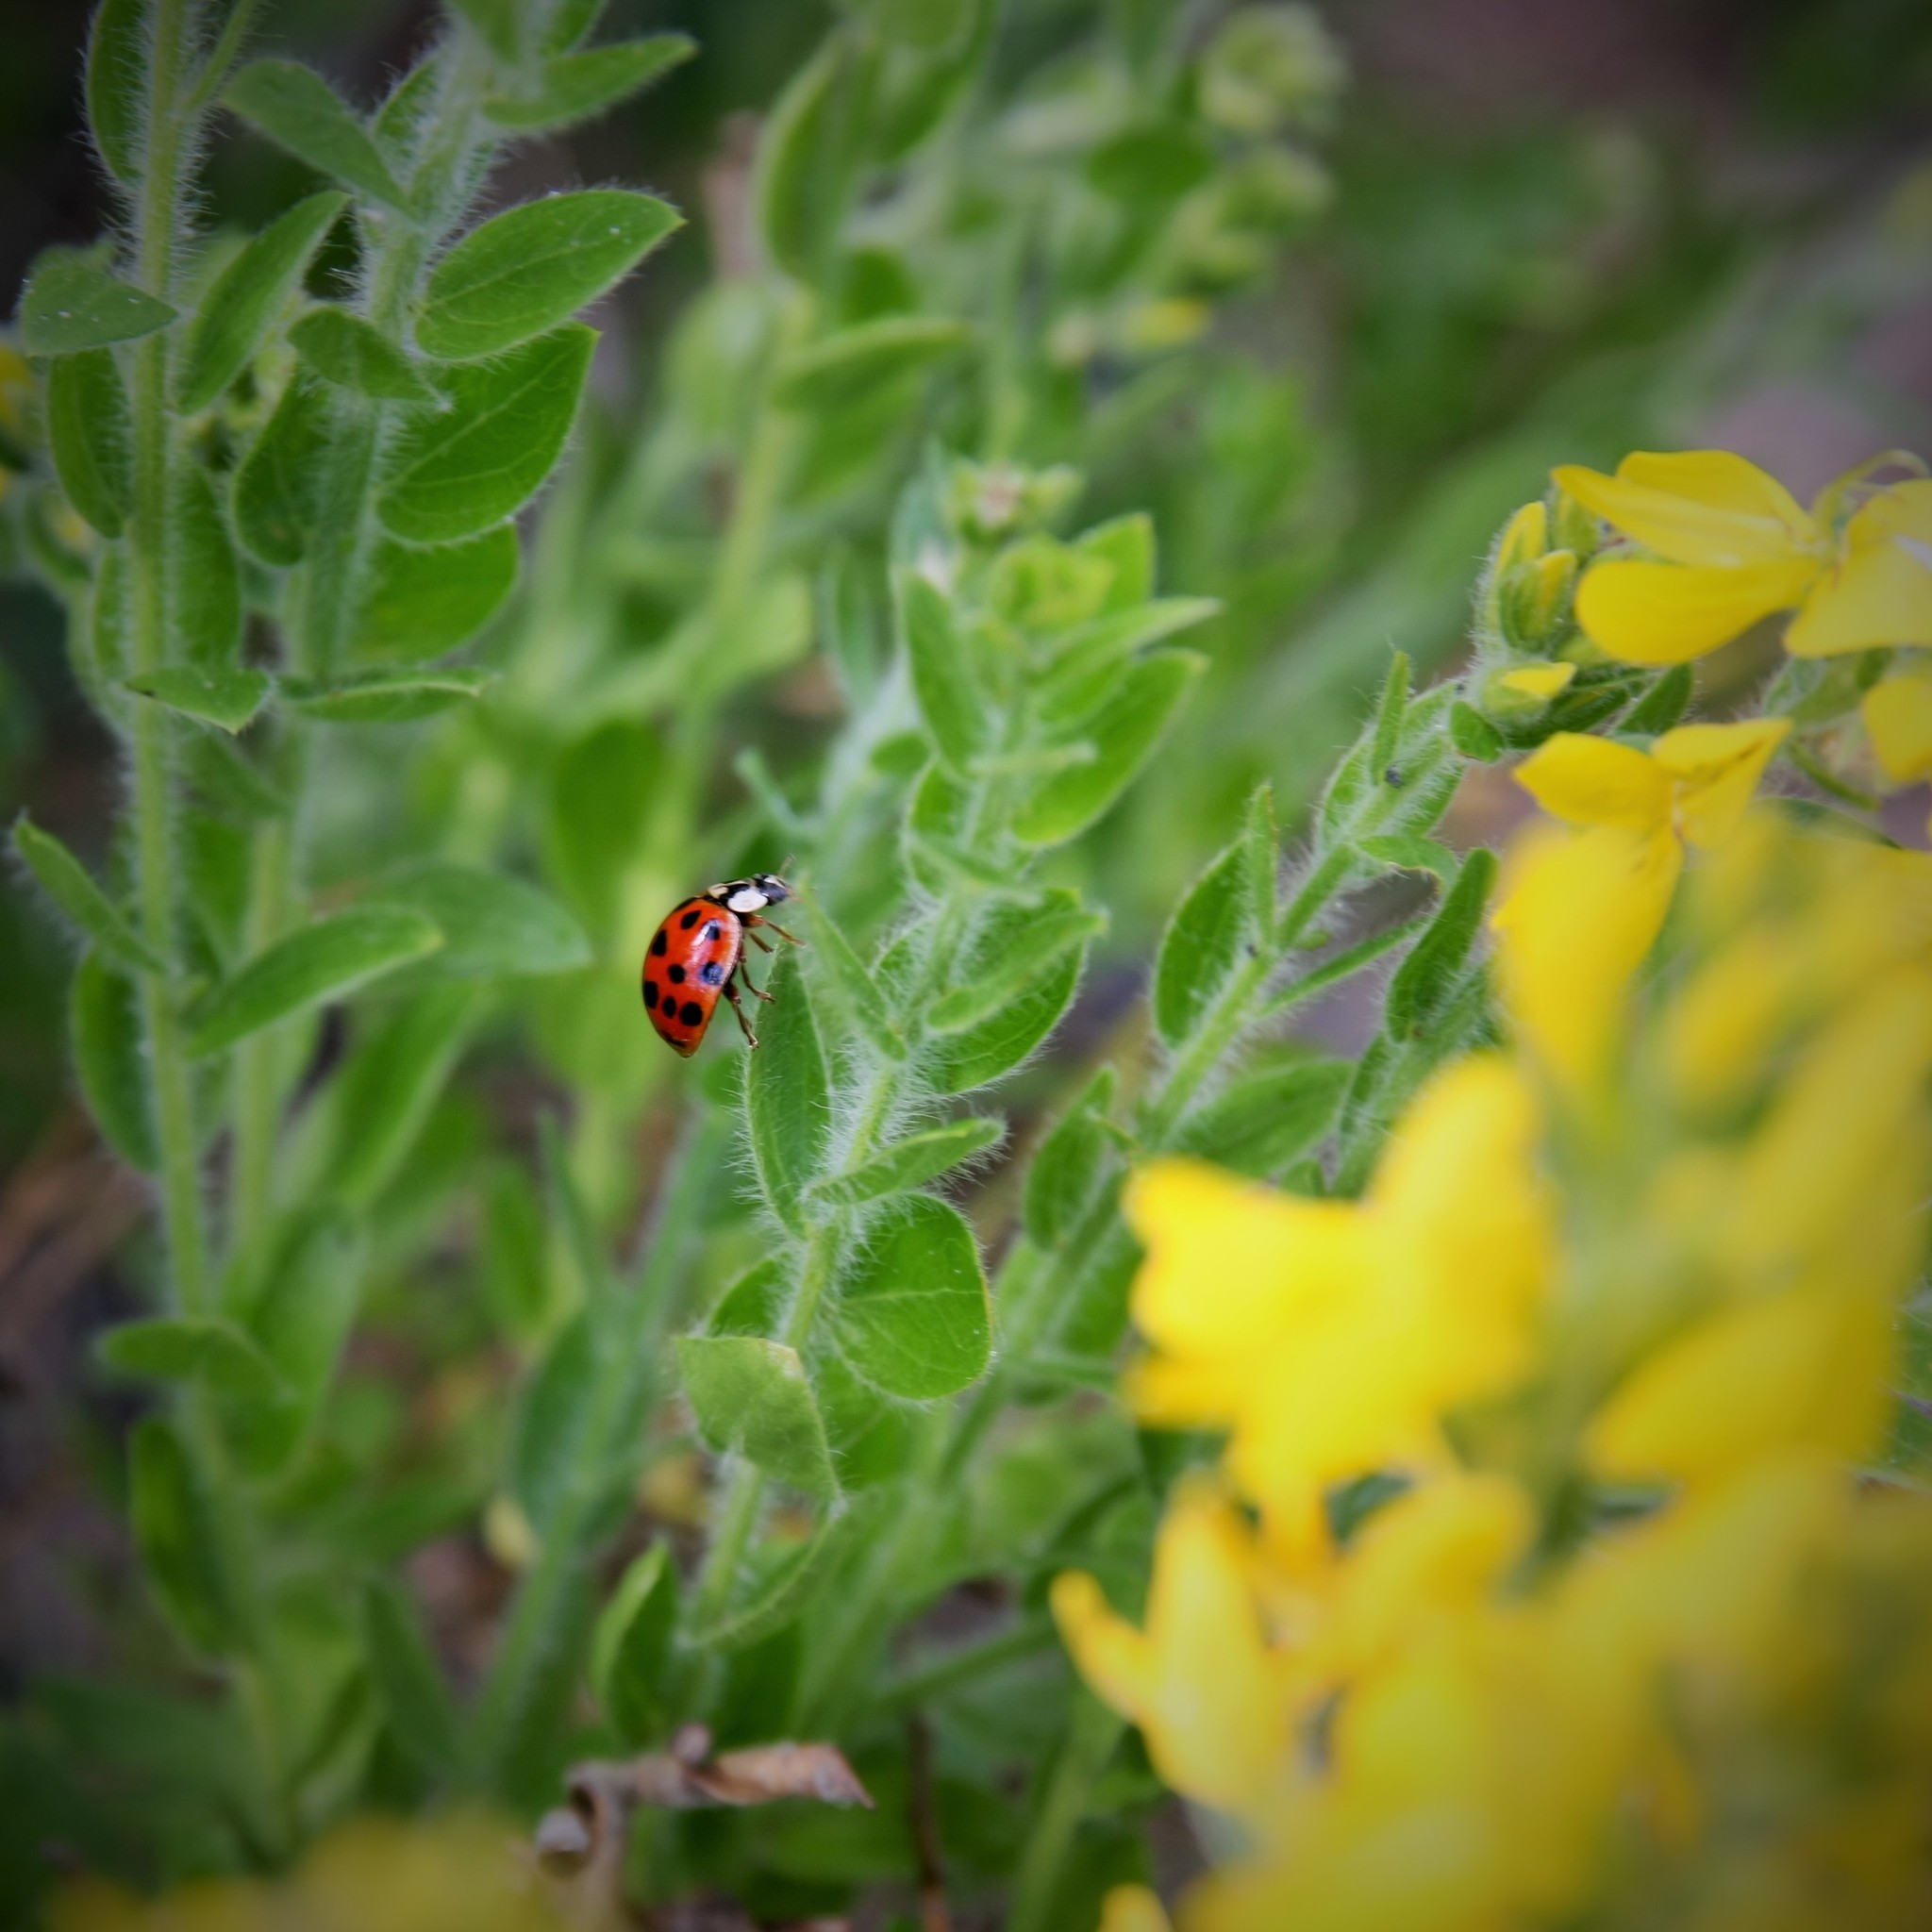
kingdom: Animalia
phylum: Arthropoda
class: Insecta
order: Coleoptera
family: Coccinellidae
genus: Harmonia
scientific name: Harmonia axyridis
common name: Harlequin ladybird
